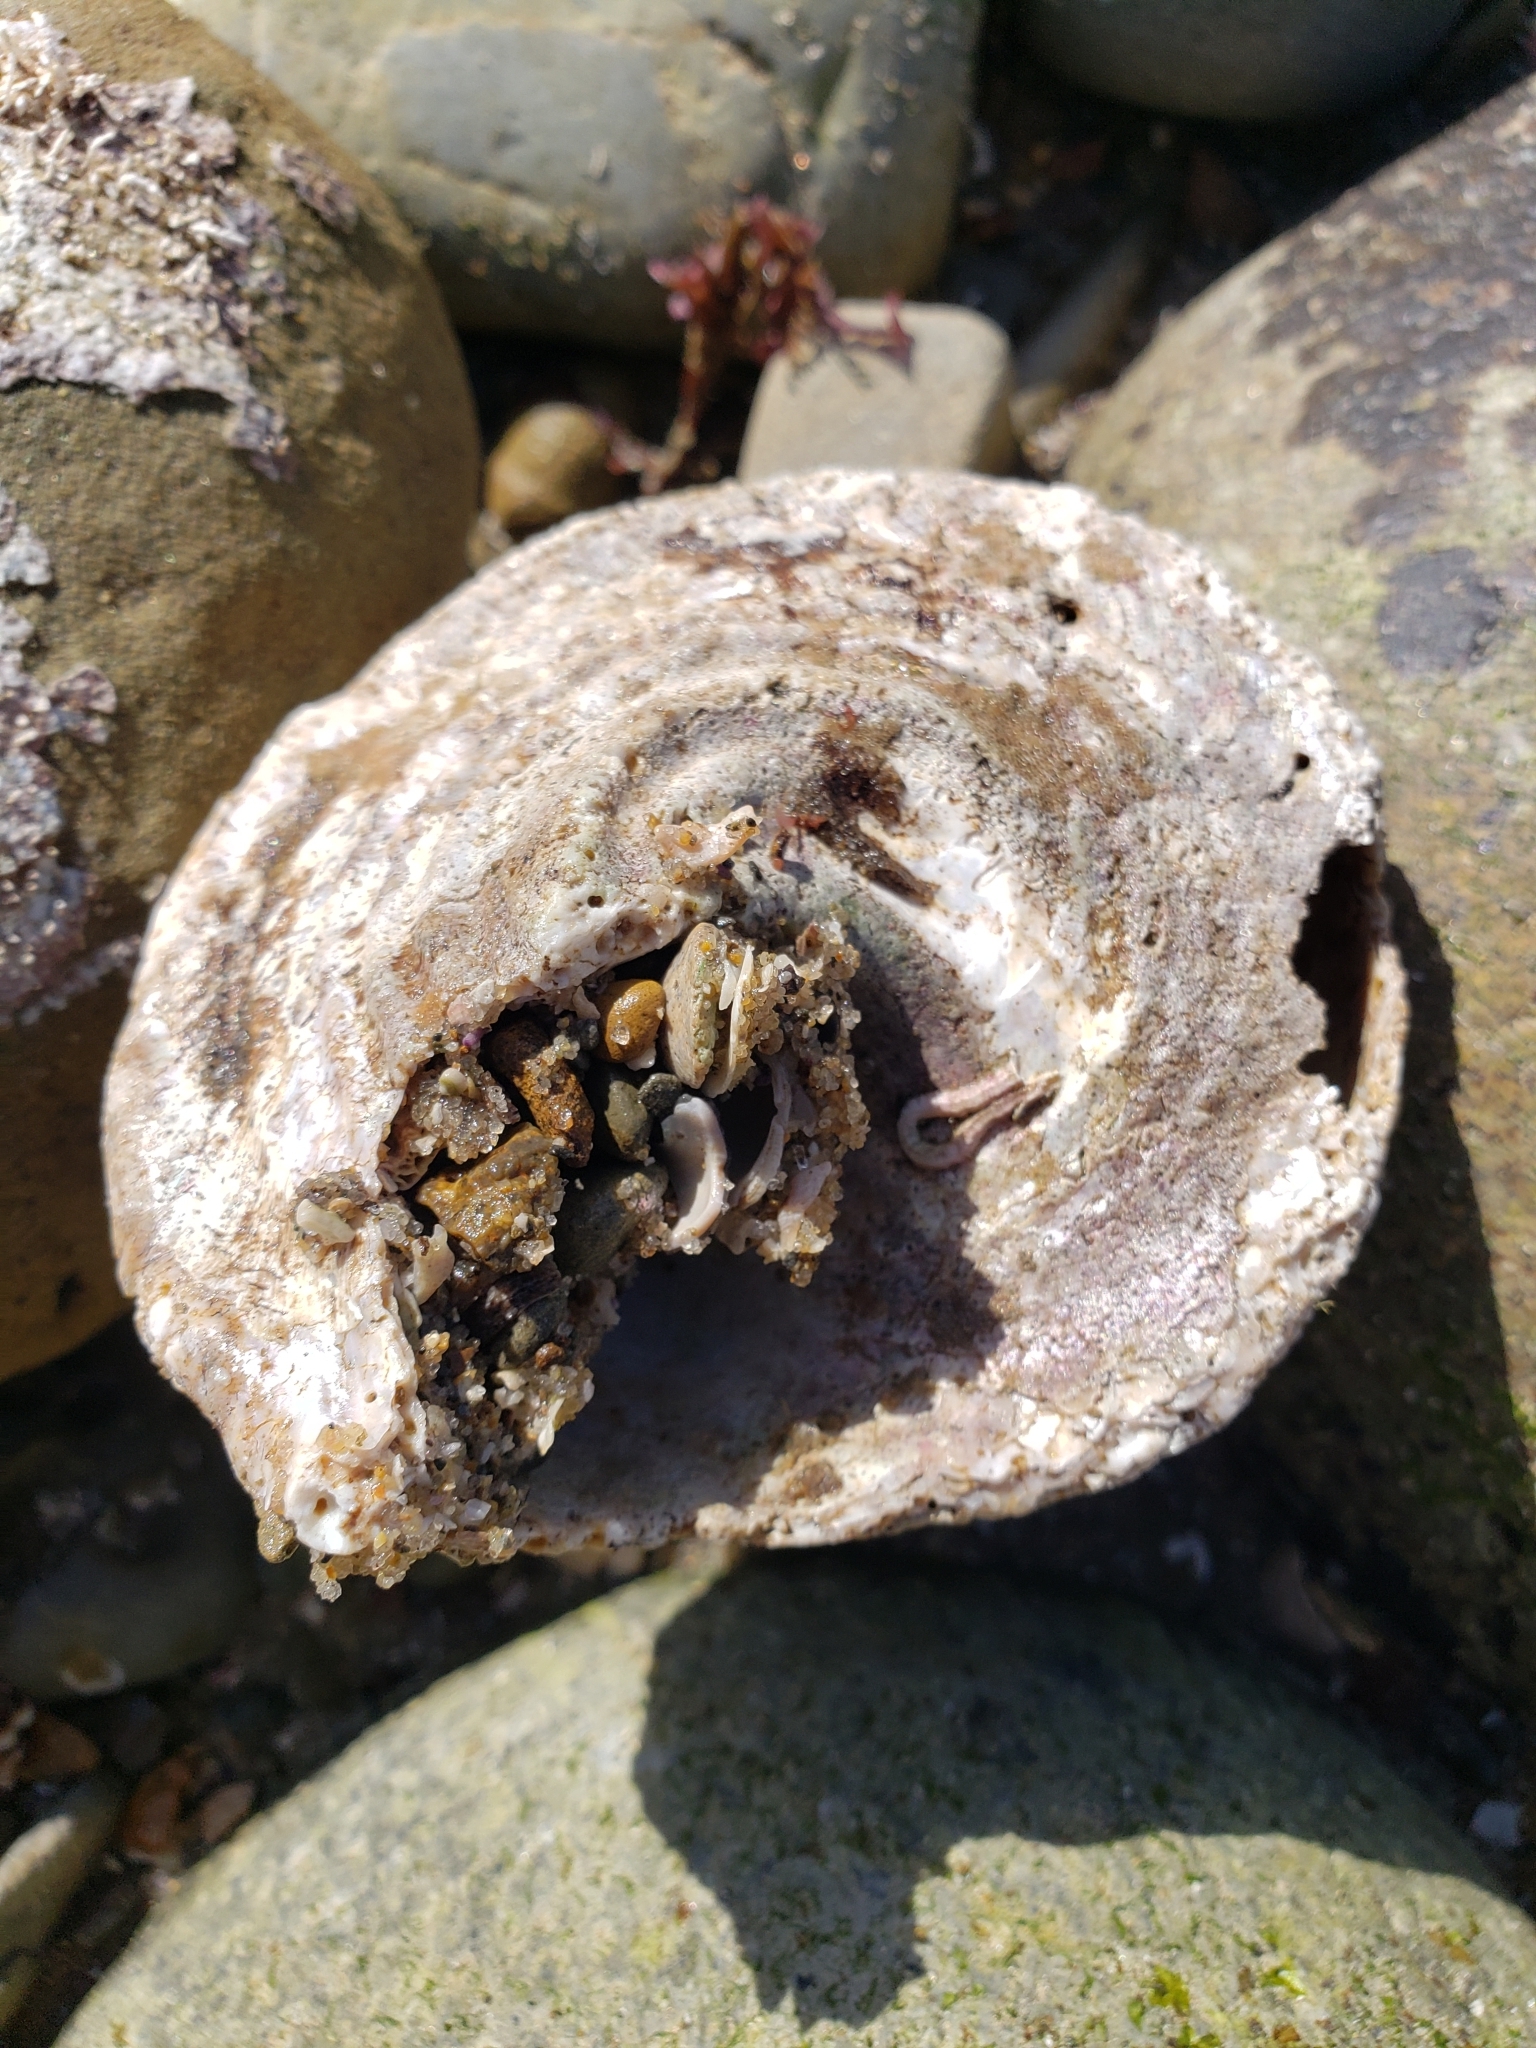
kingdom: Animalia
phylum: Mollusca
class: Gastropoda
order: Trochida
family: Turbinidae
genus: Megastraea
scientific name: Megastraea undosa
